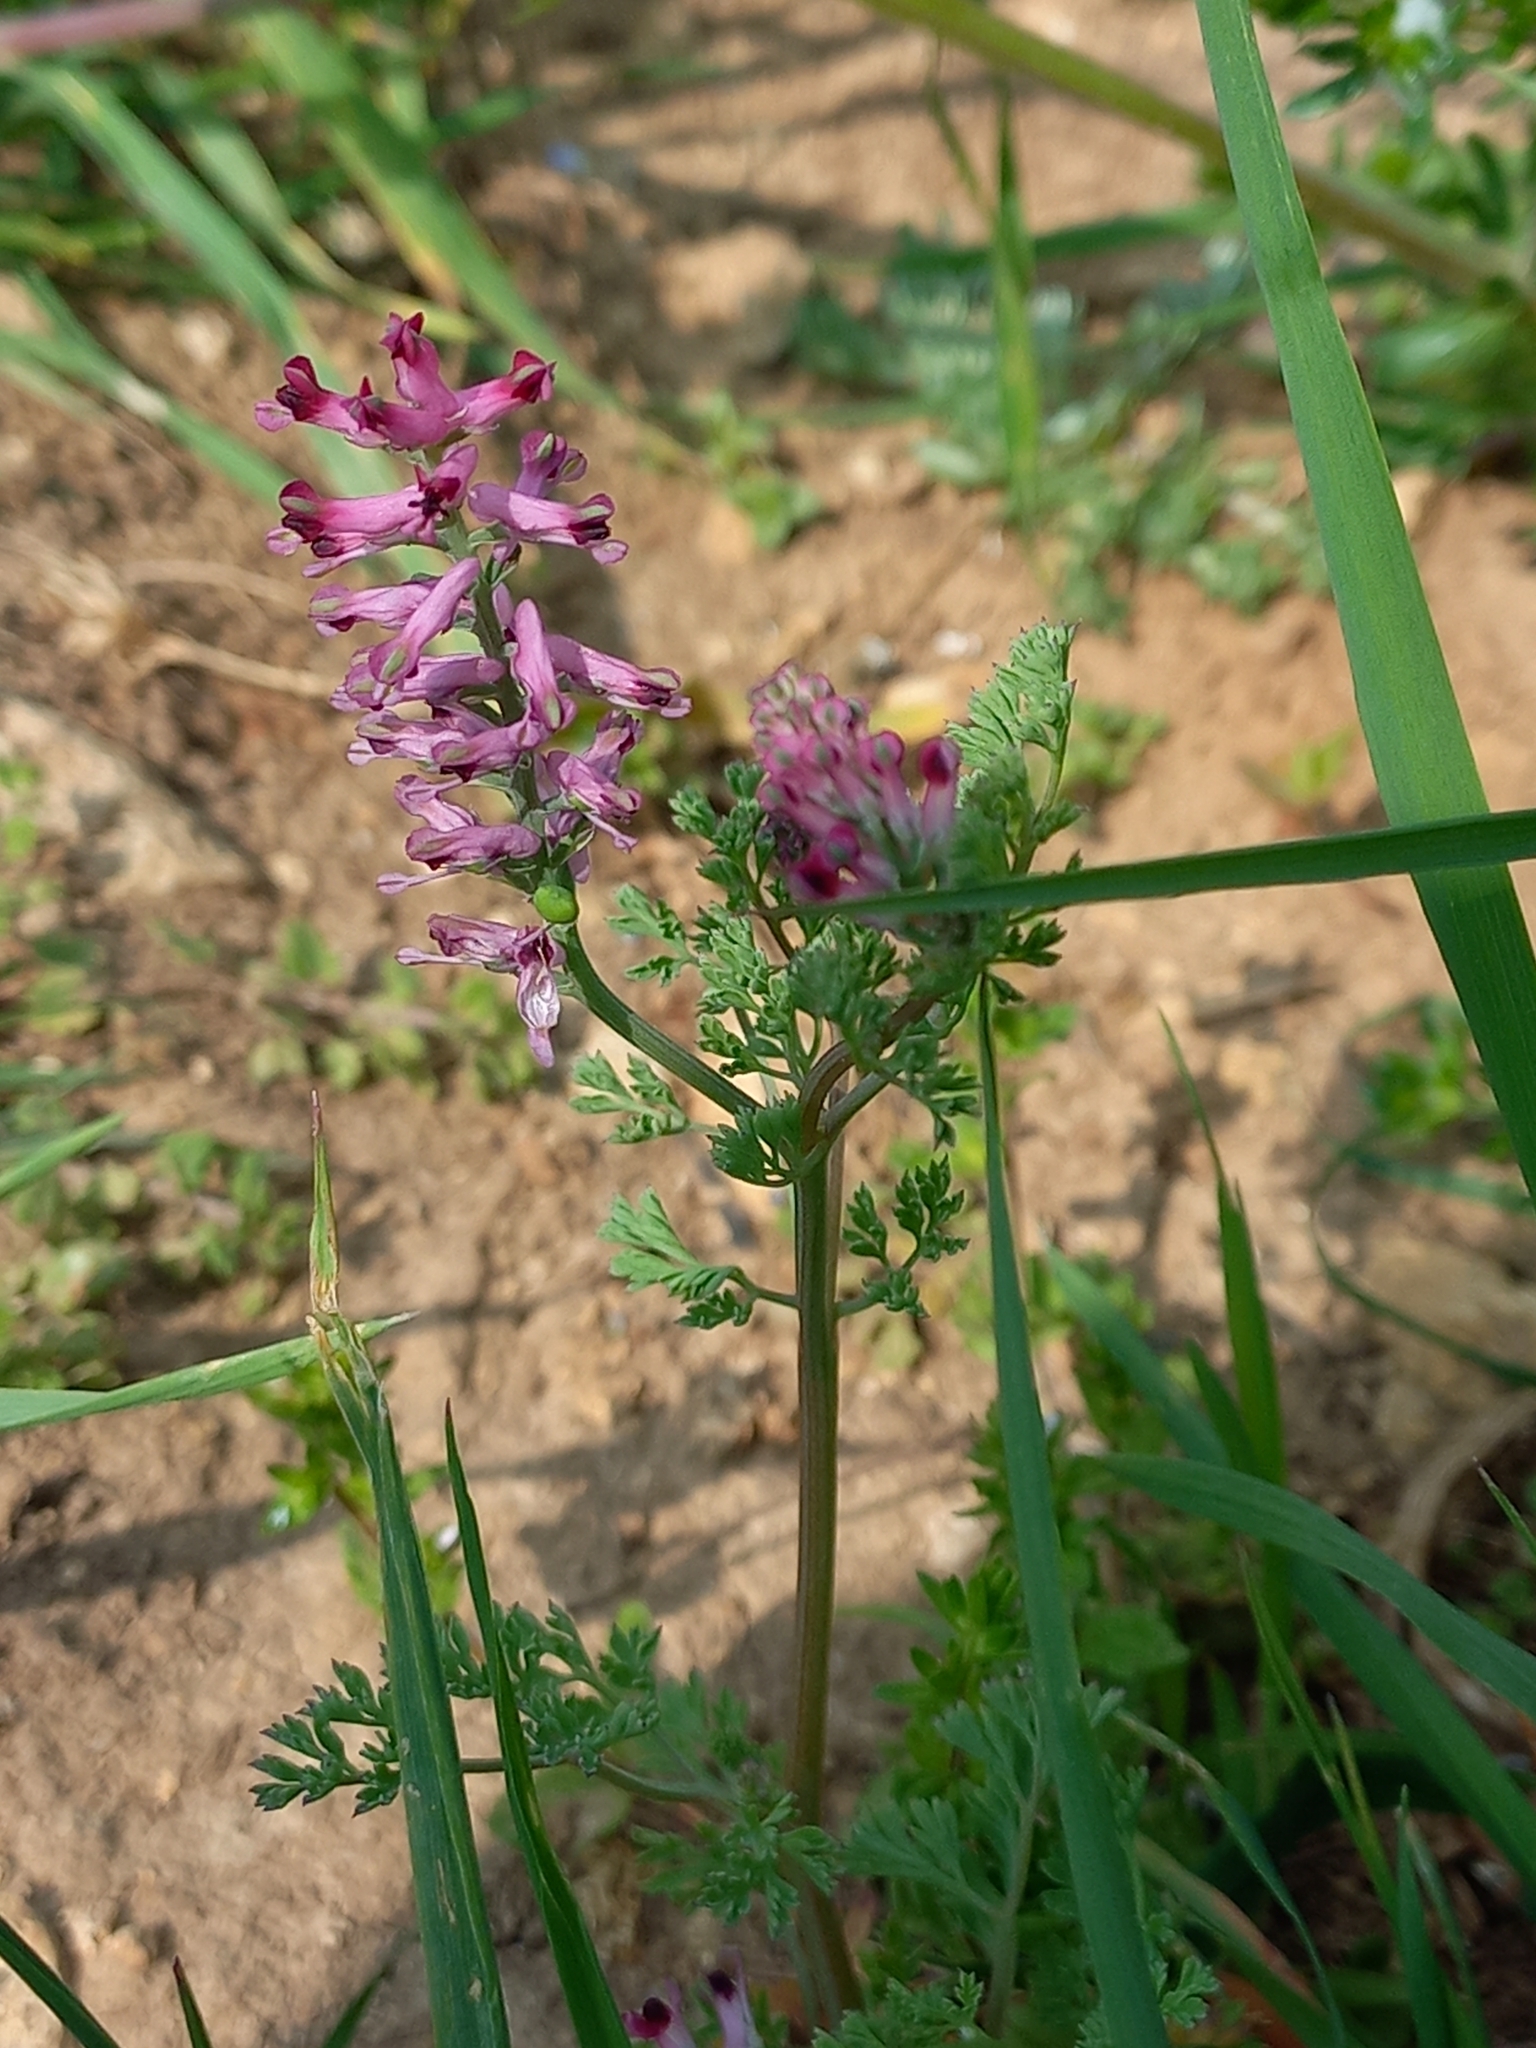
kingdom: Plantae
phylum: Tracheophyta
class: Magnoliopsida
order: Ranunculales
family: Papaveraceae
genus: Fumaria
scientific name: Fumaria officinalis
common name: Common fumitory
